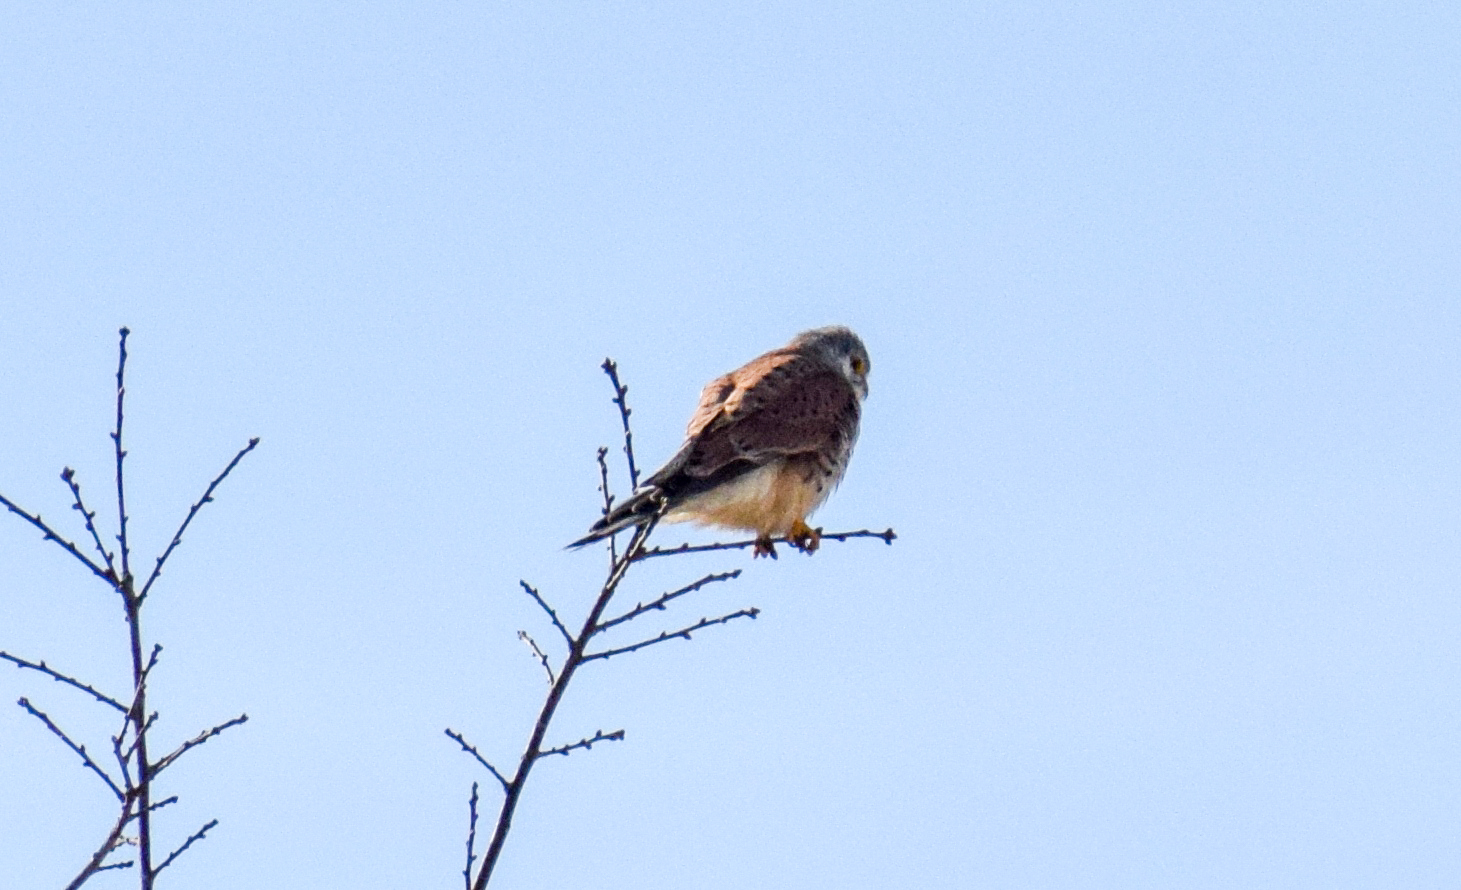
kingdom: Animalia
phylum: Chordata
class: Aves
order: Falconiformes
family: Falconidae
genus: Falco
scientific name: Falco tinnunculus
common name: Common kestrel
